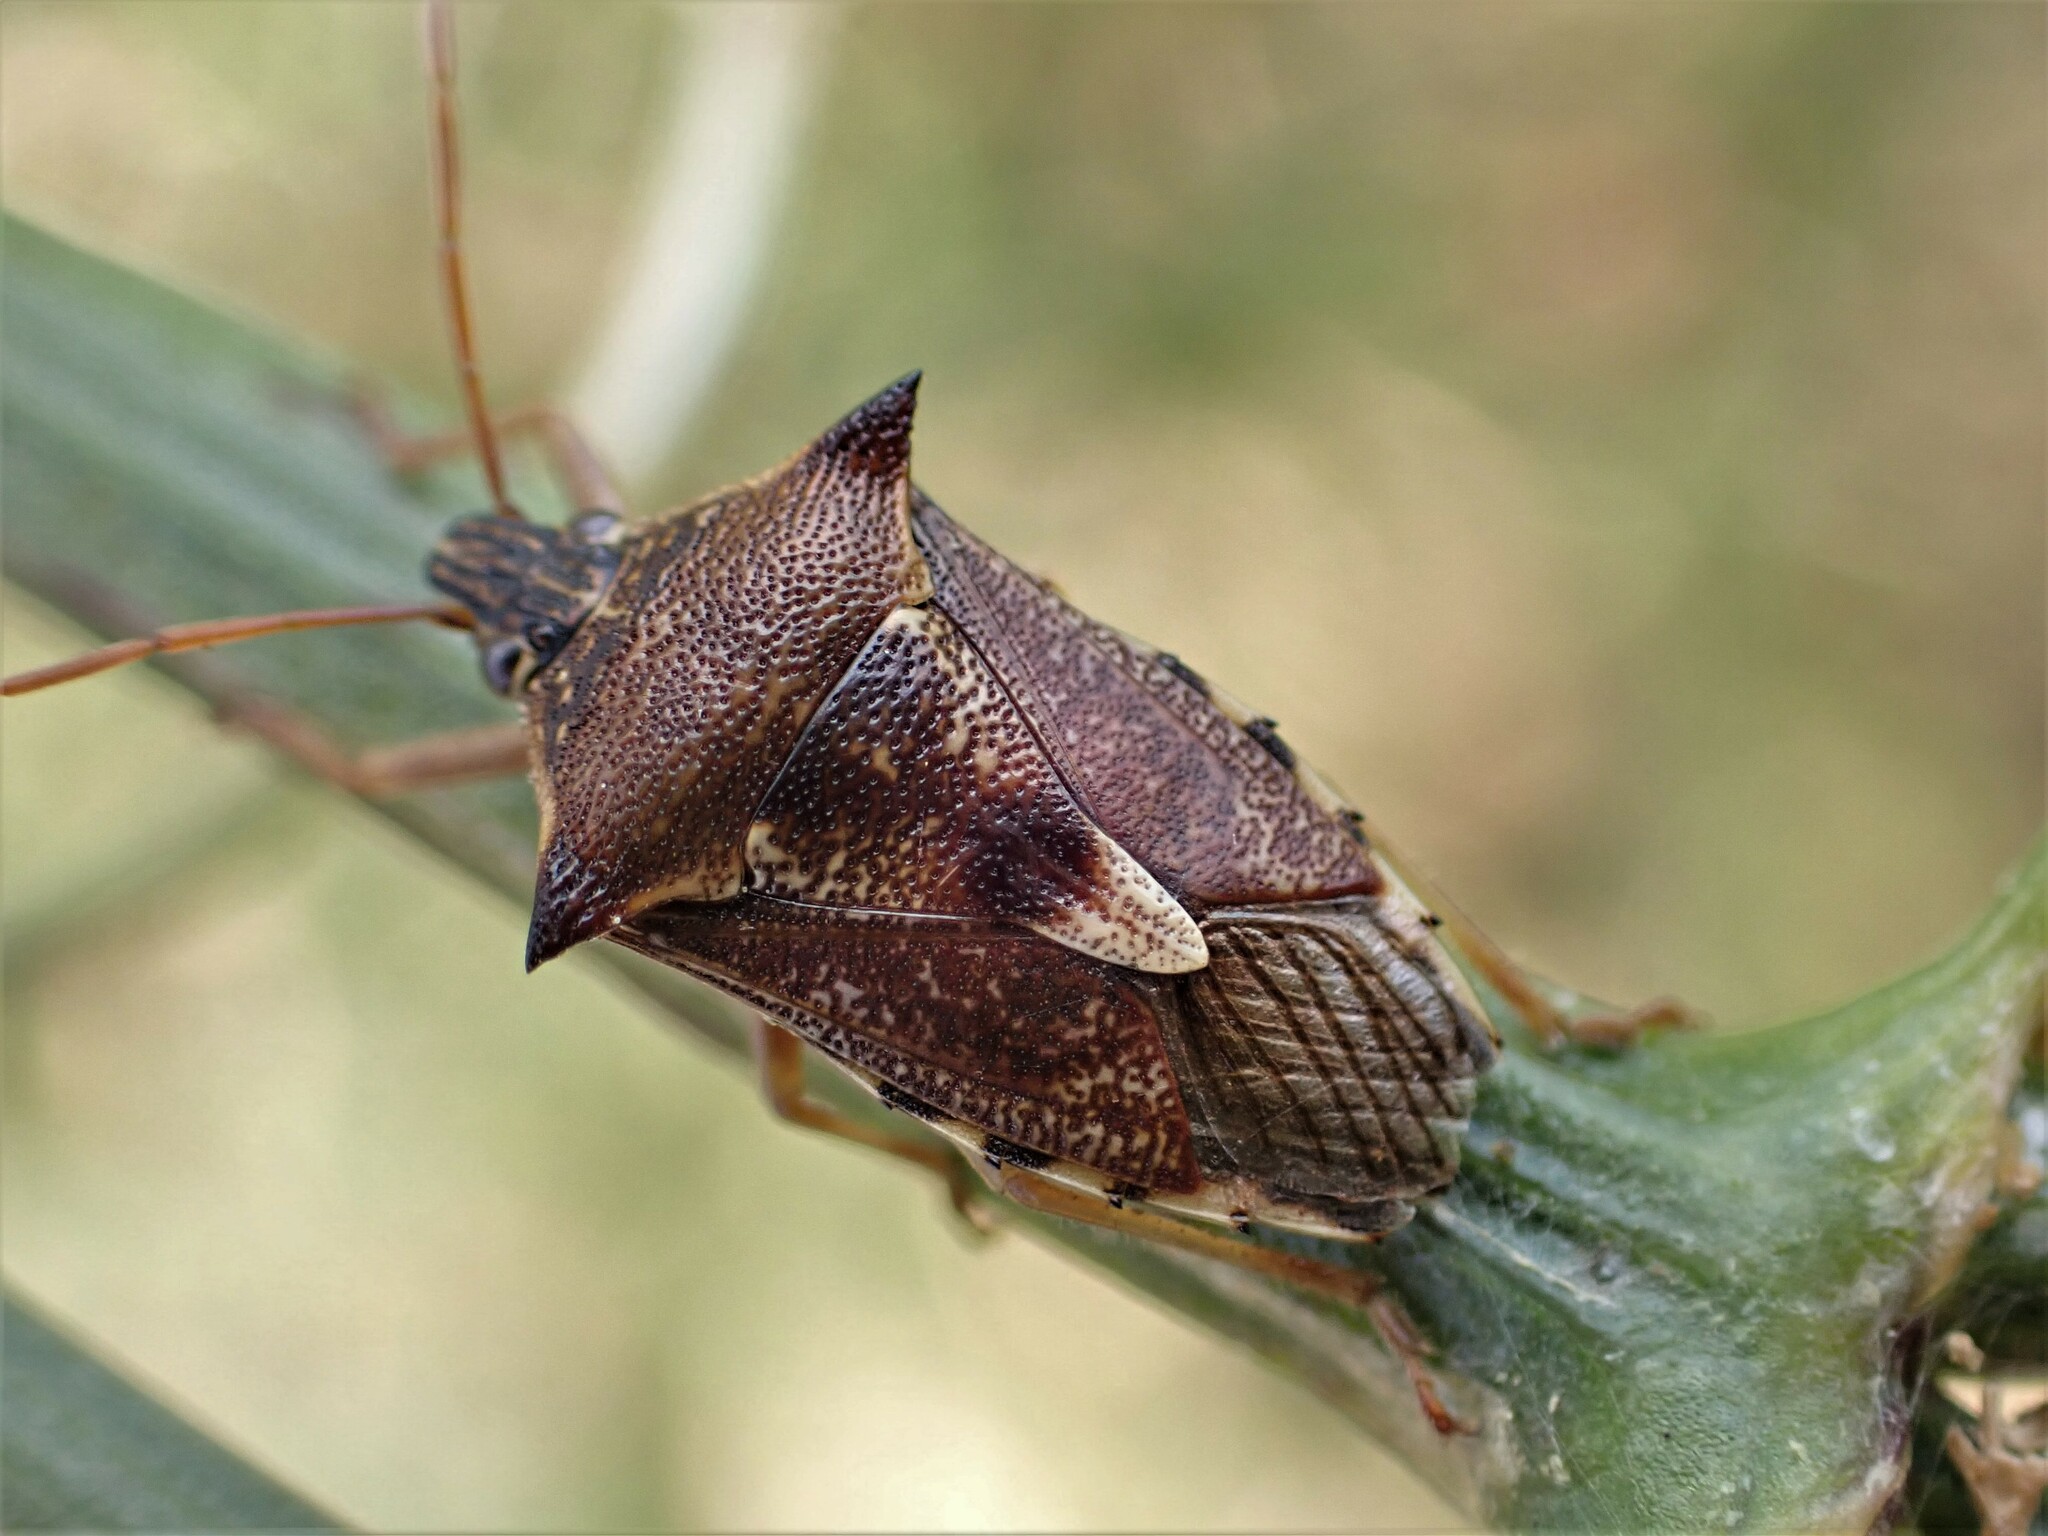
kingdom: Animalia
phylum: Arthropoda
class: Insecta
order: Hemiptera
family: Pentatomidae
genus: Oechalia
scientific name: Oechalia schellenbergii
